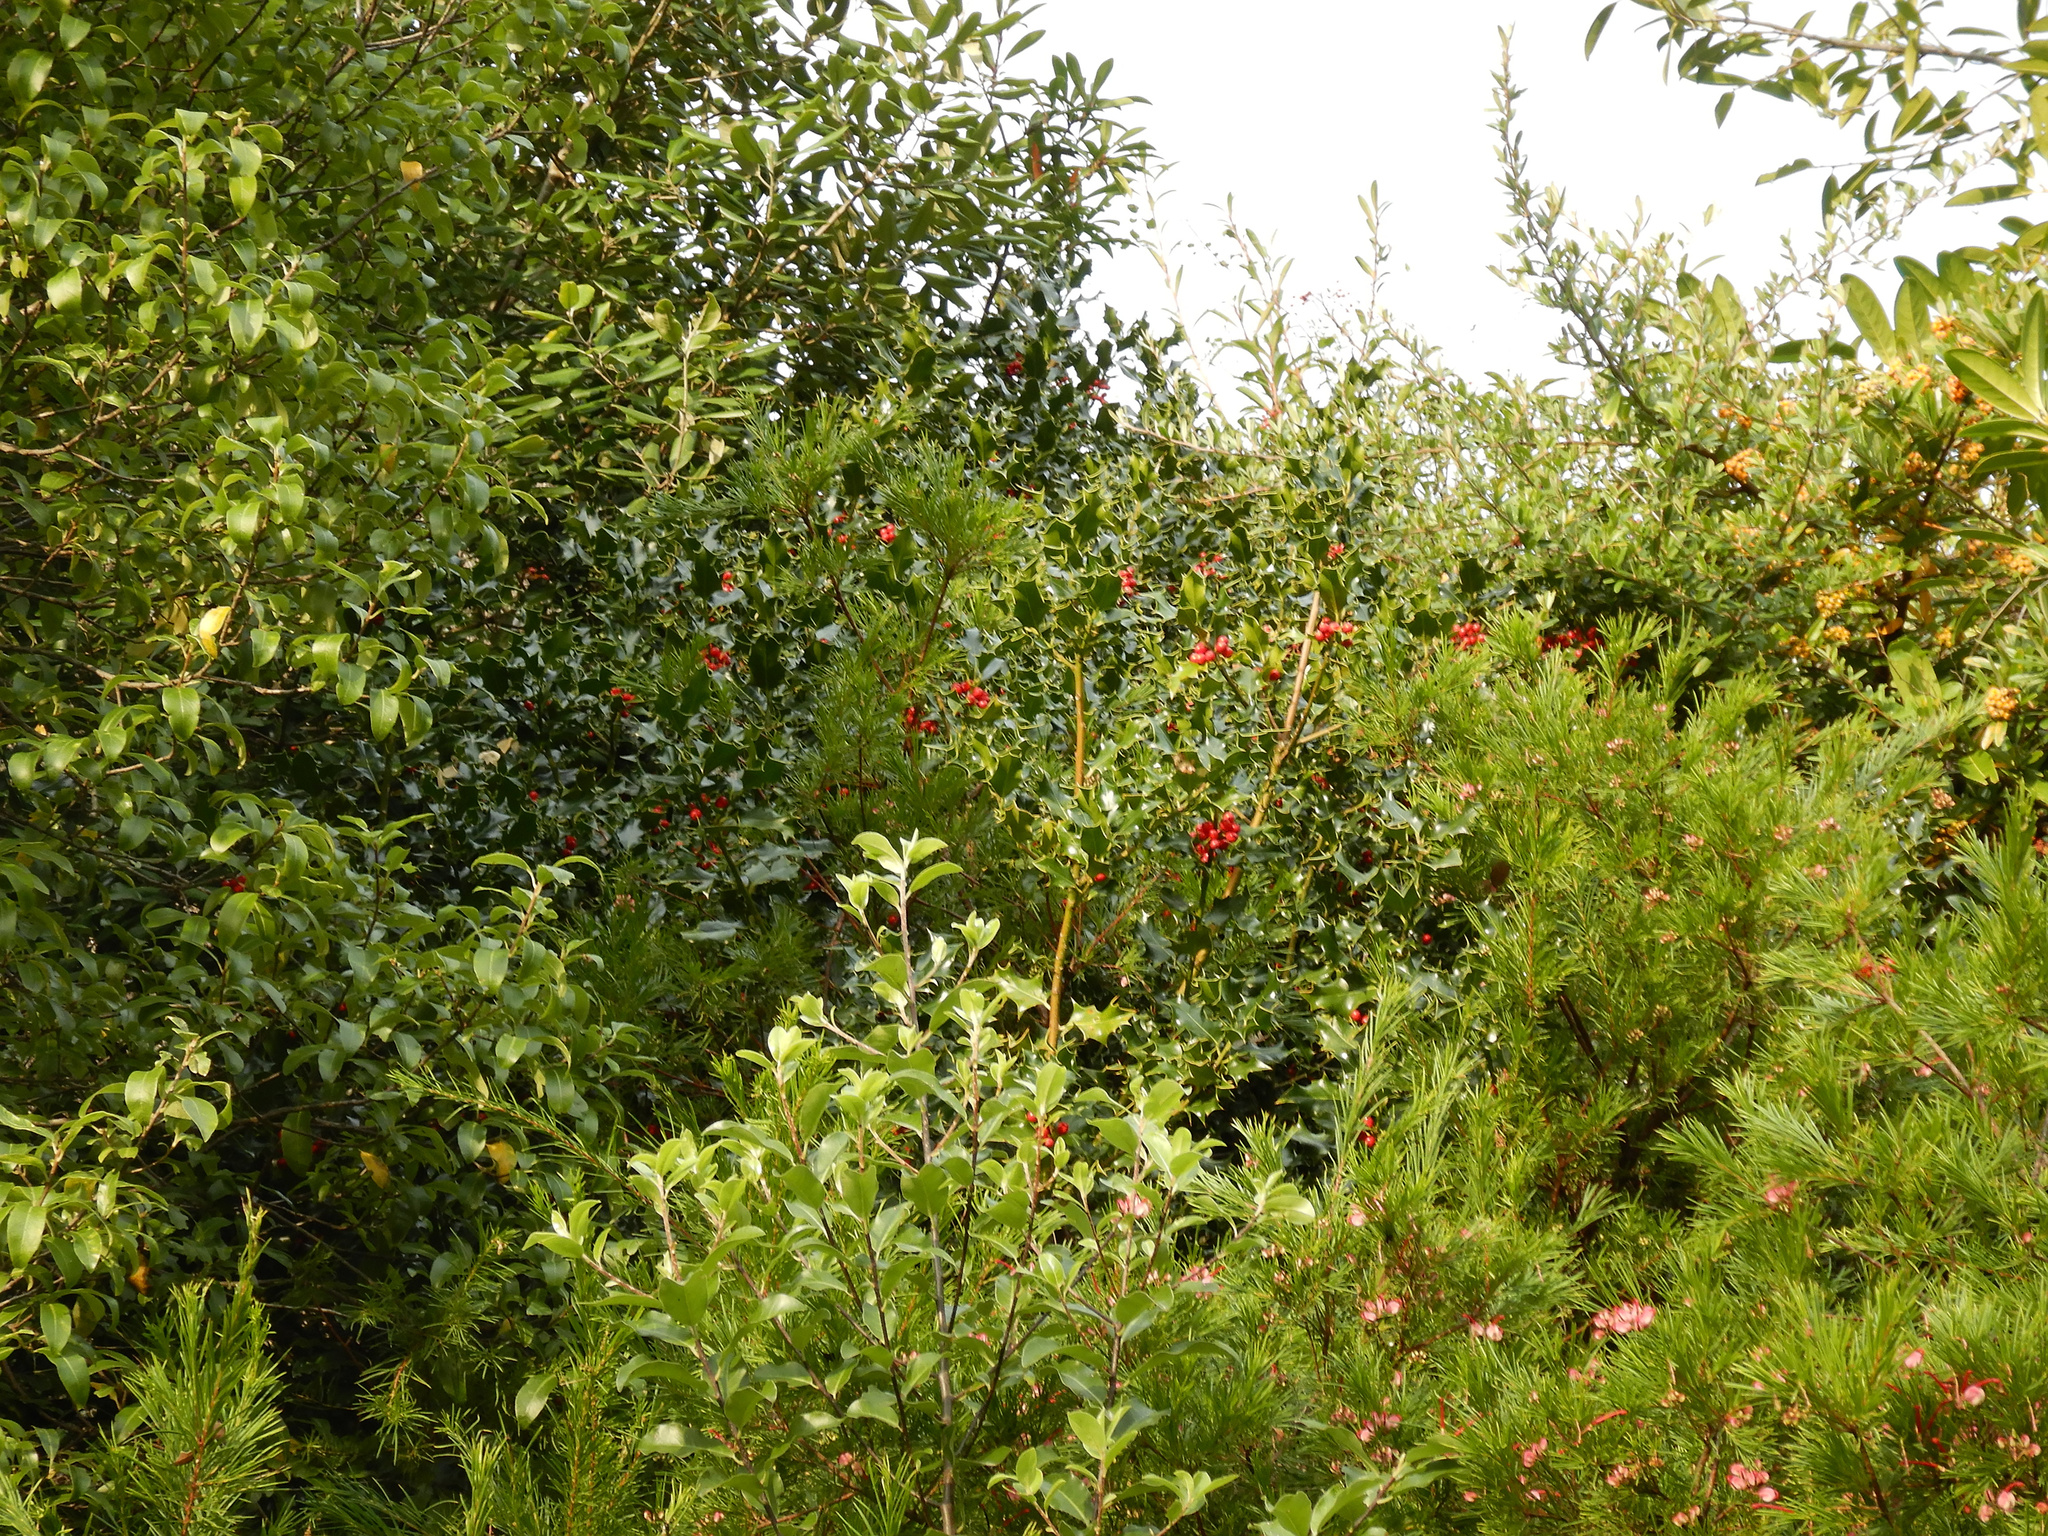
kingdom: Plantae
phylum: Tracheophyta
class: Magnoliopsida
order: Aquifoliales
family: Aquifoliaceae
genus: Ilex
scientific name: Ilex aquifolium
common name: English holly
